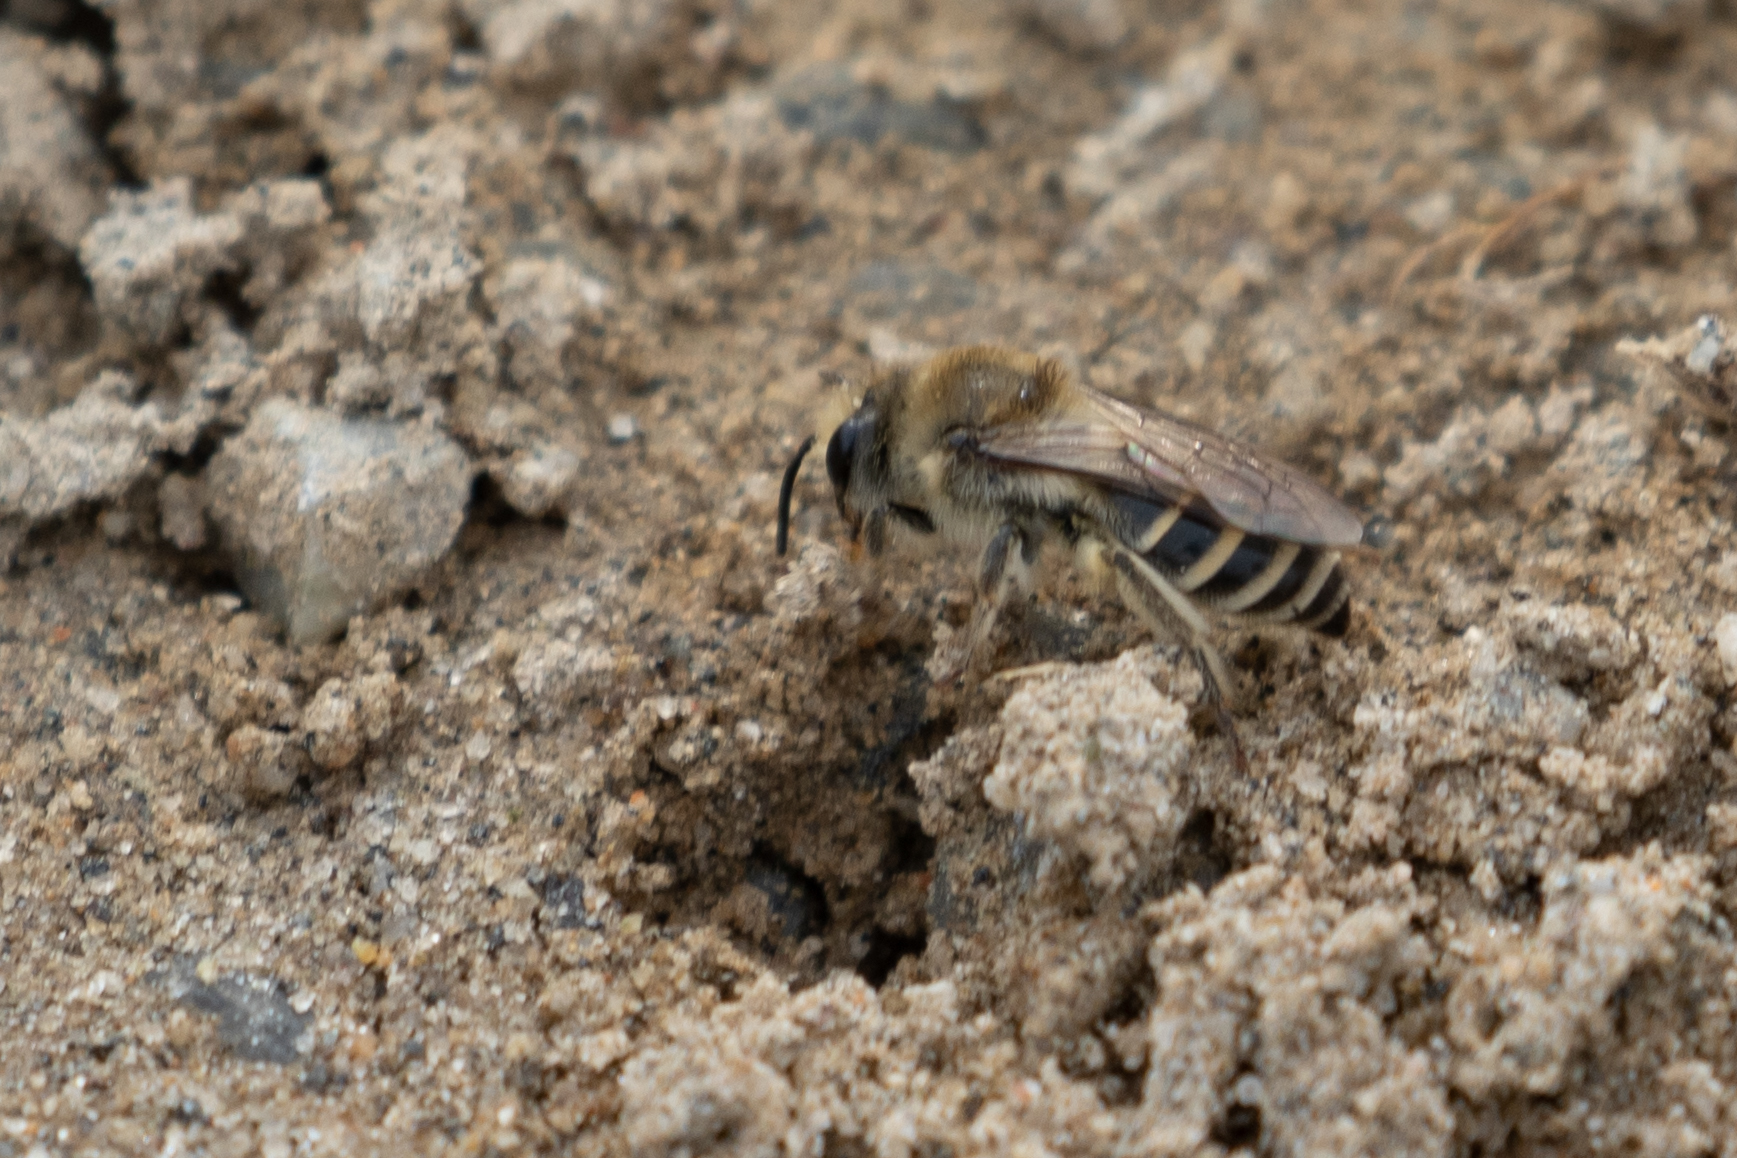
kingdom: Animalia
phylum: Arthropoda
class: Insecta
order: Hymenoptera
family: Colletidae
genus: Colletes
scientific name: Colletes inaequalis
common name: Unequal cellophane bee
